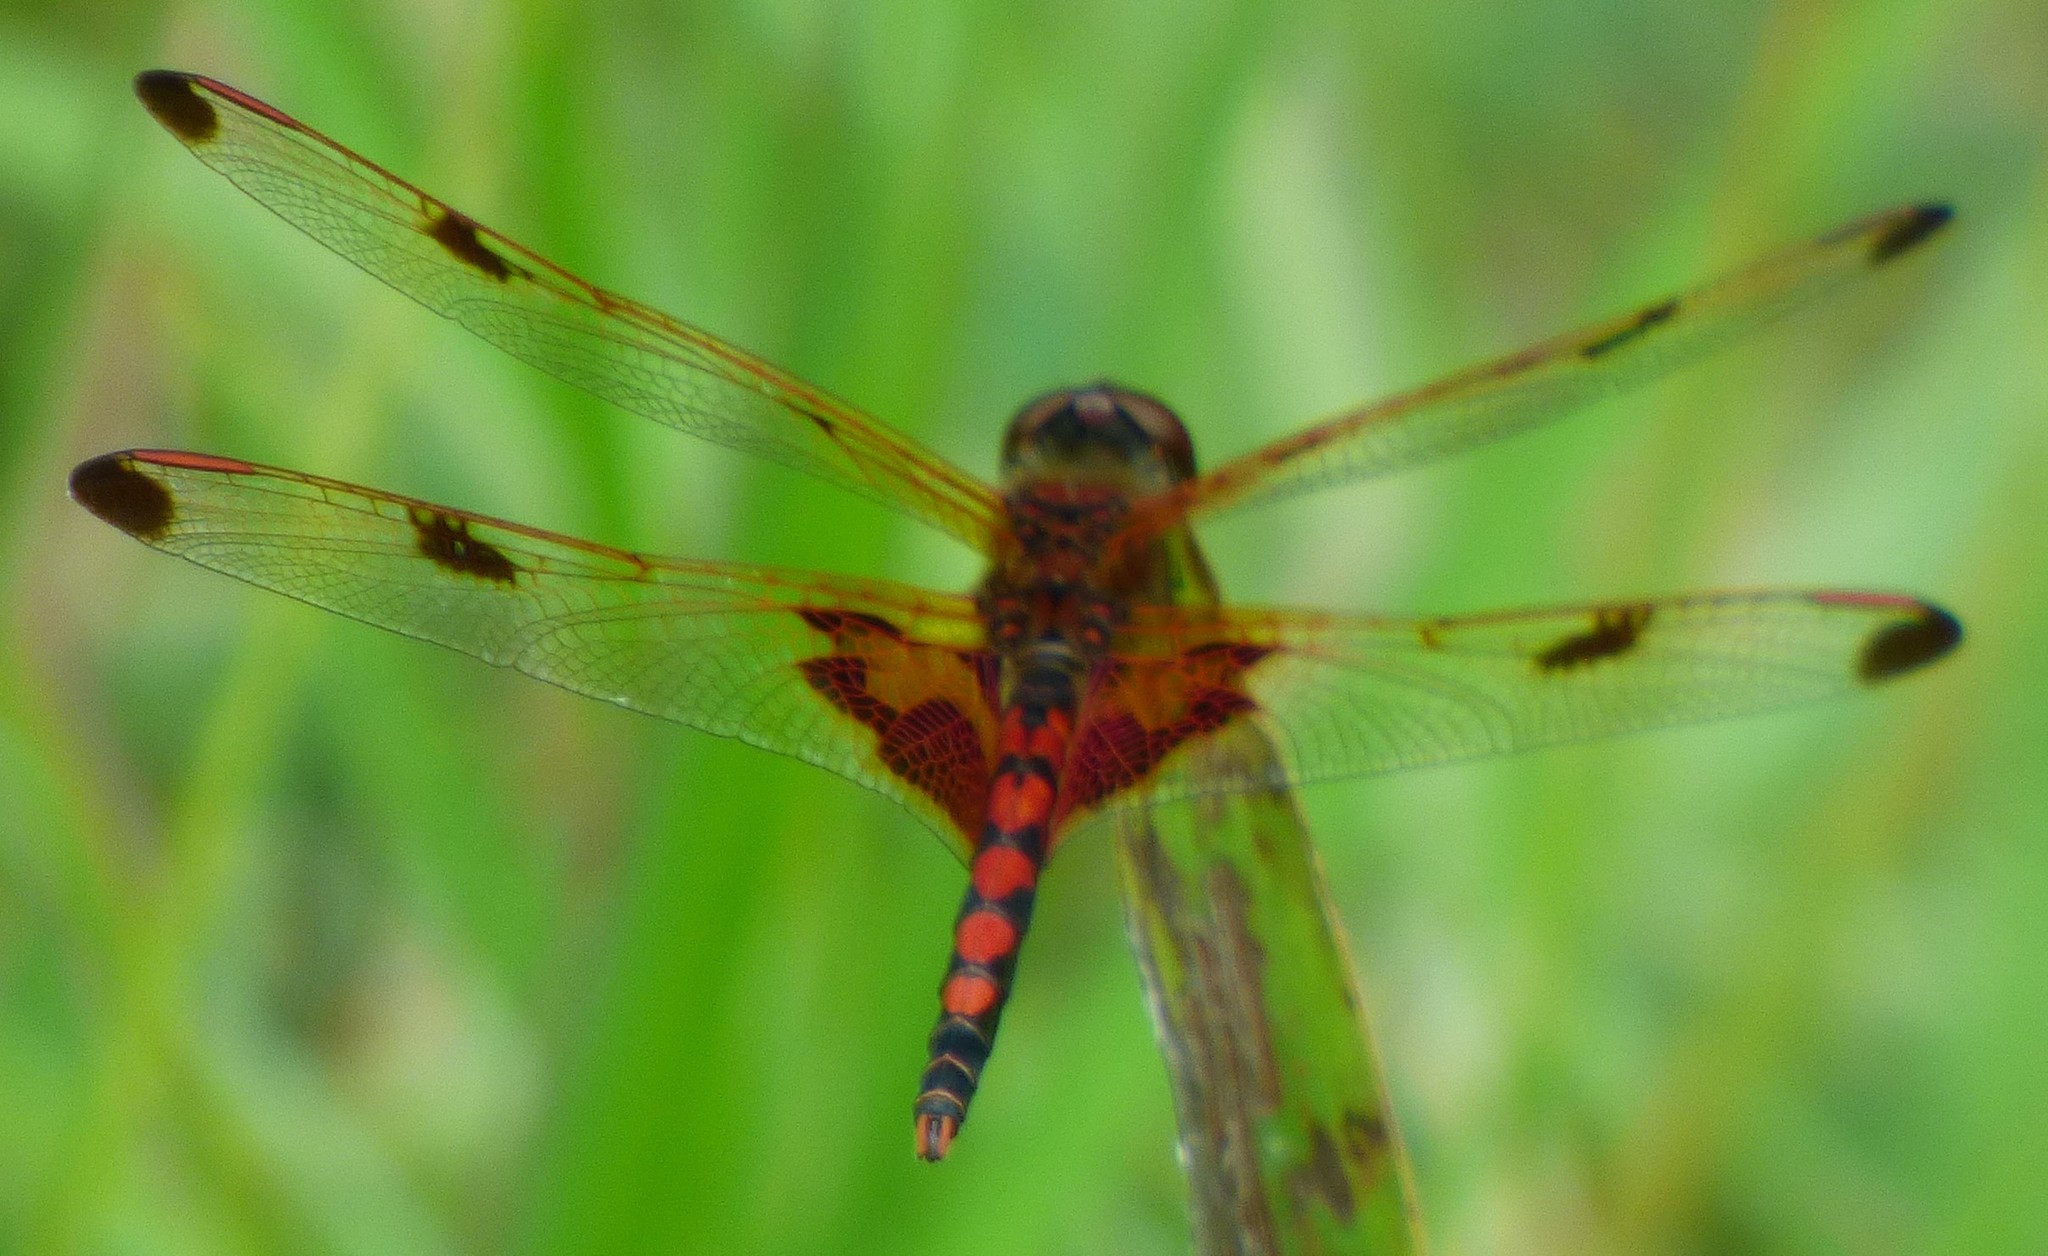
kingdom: Animalia
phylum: Arthropoda
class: Insecta
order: Odonata
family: Libellulidae
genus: Celithemis
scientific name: Celithemis elisa
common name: Calico pennant
